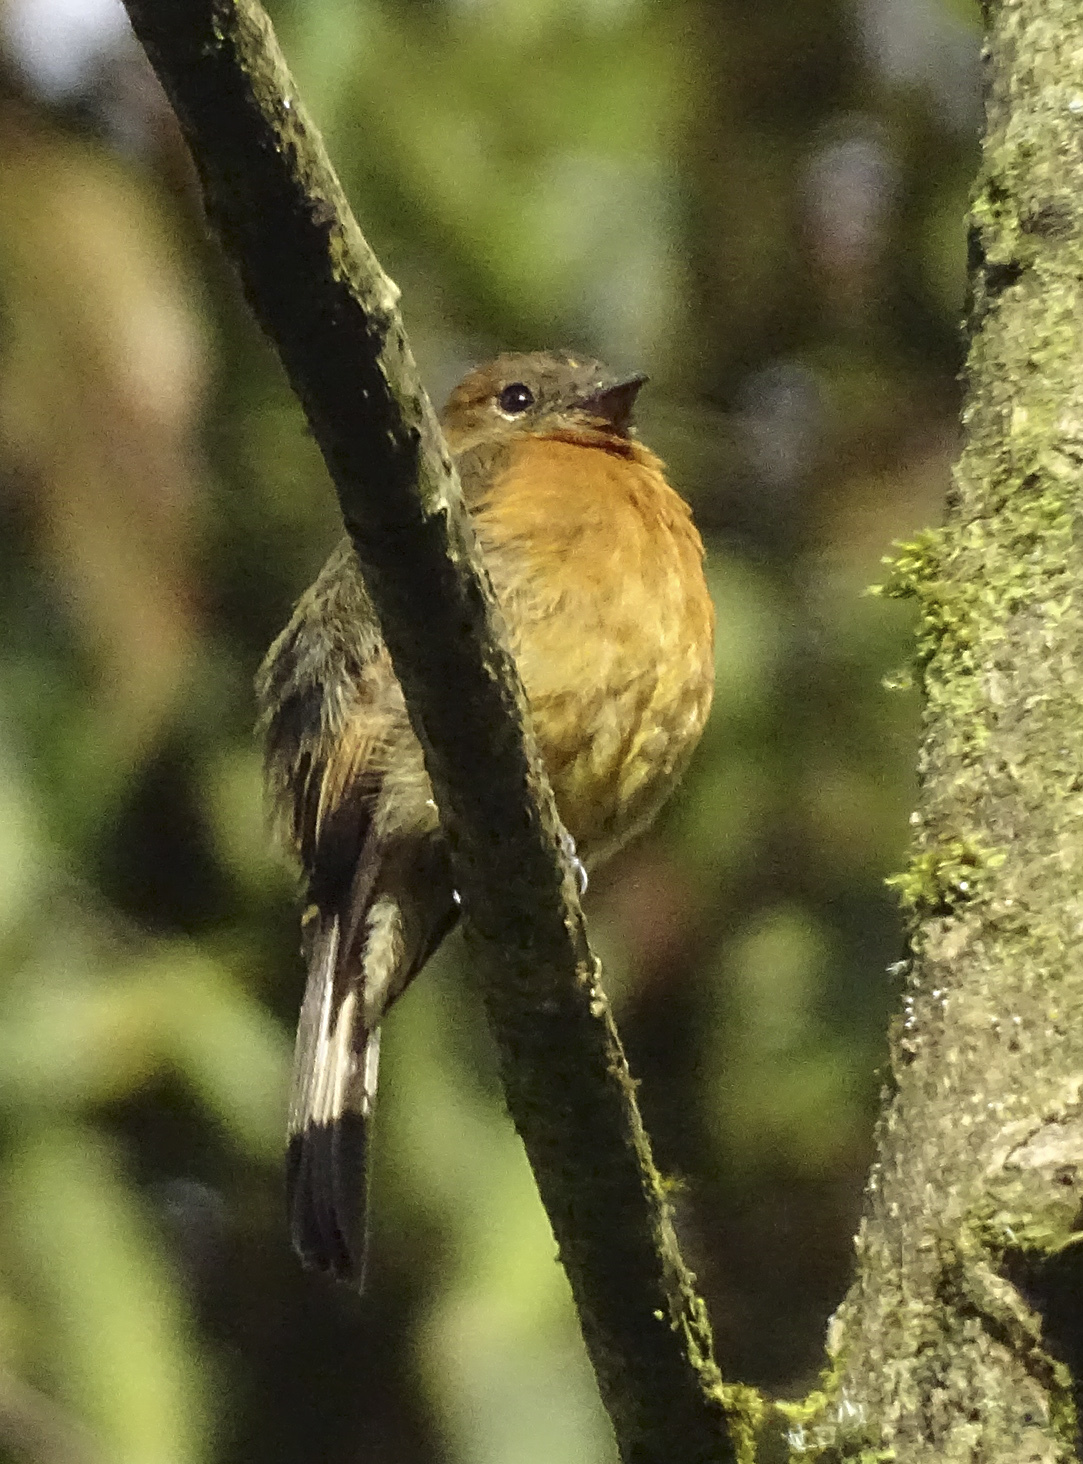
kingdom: Animalia
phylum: Chordata
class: Aves
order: Passeriformes
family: Tyrannidae
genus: Pyrrhomyias
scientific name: Pyrrhomyias cinnamomeus
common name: Cinnamon flycatcher
